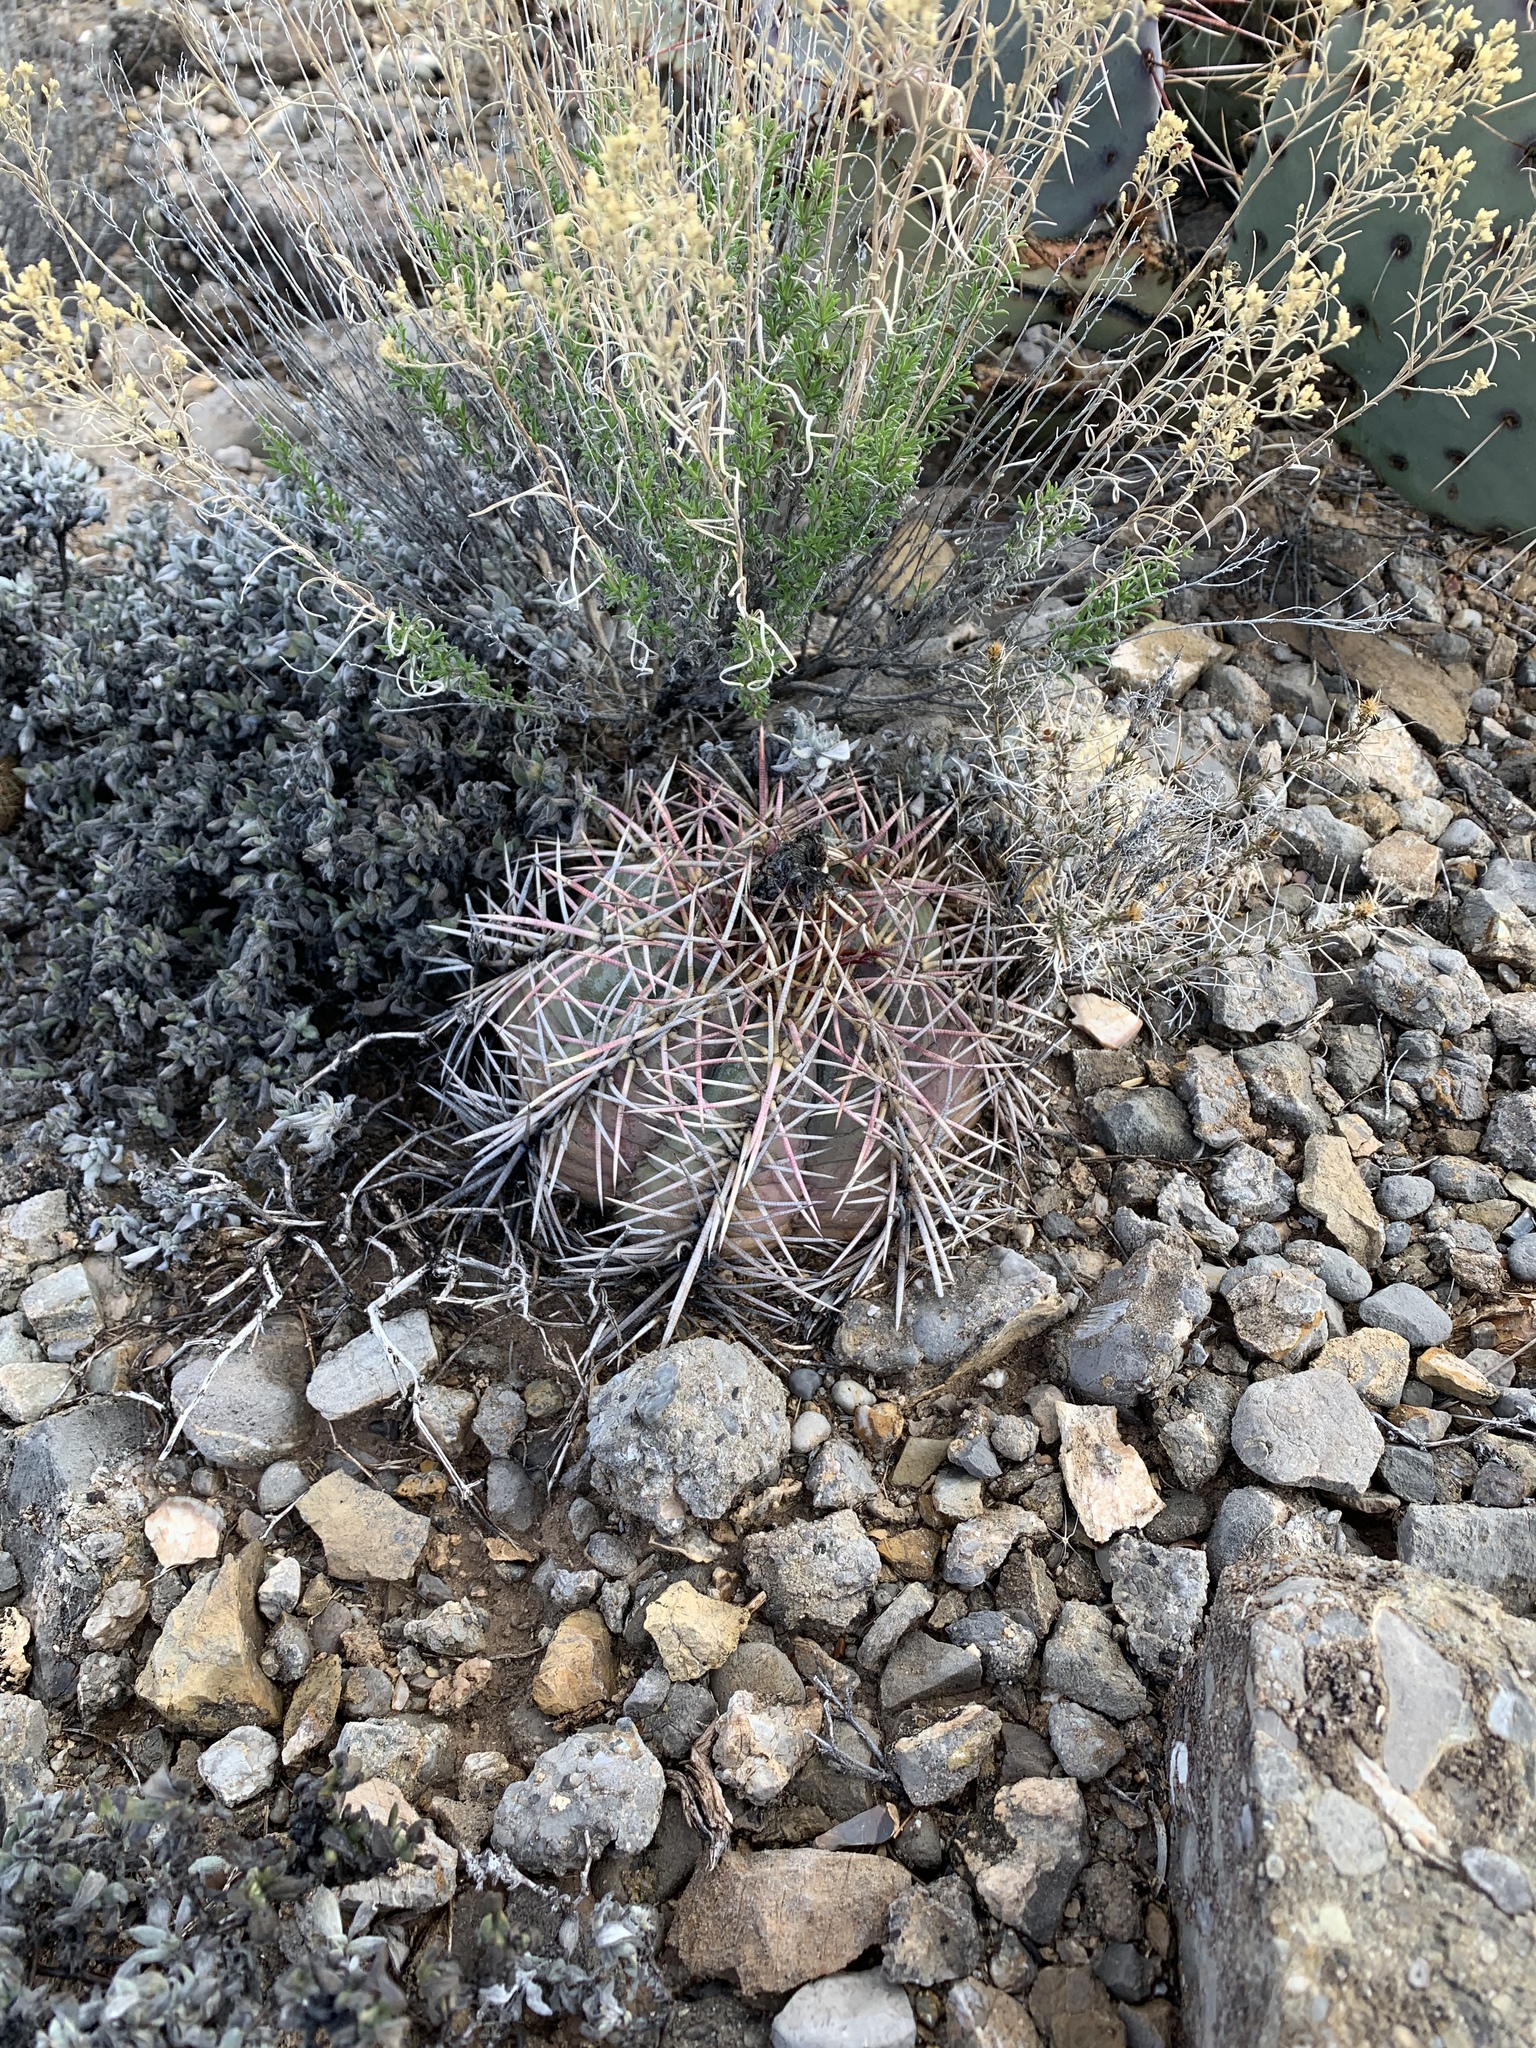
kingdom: Plantae
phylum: Tracheophyta
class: Magnoliopsida
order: Caryophyllales
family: Cactaceae
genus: Echinocactus
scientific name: Echinocactus horizonthalonius
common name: Devilshead
